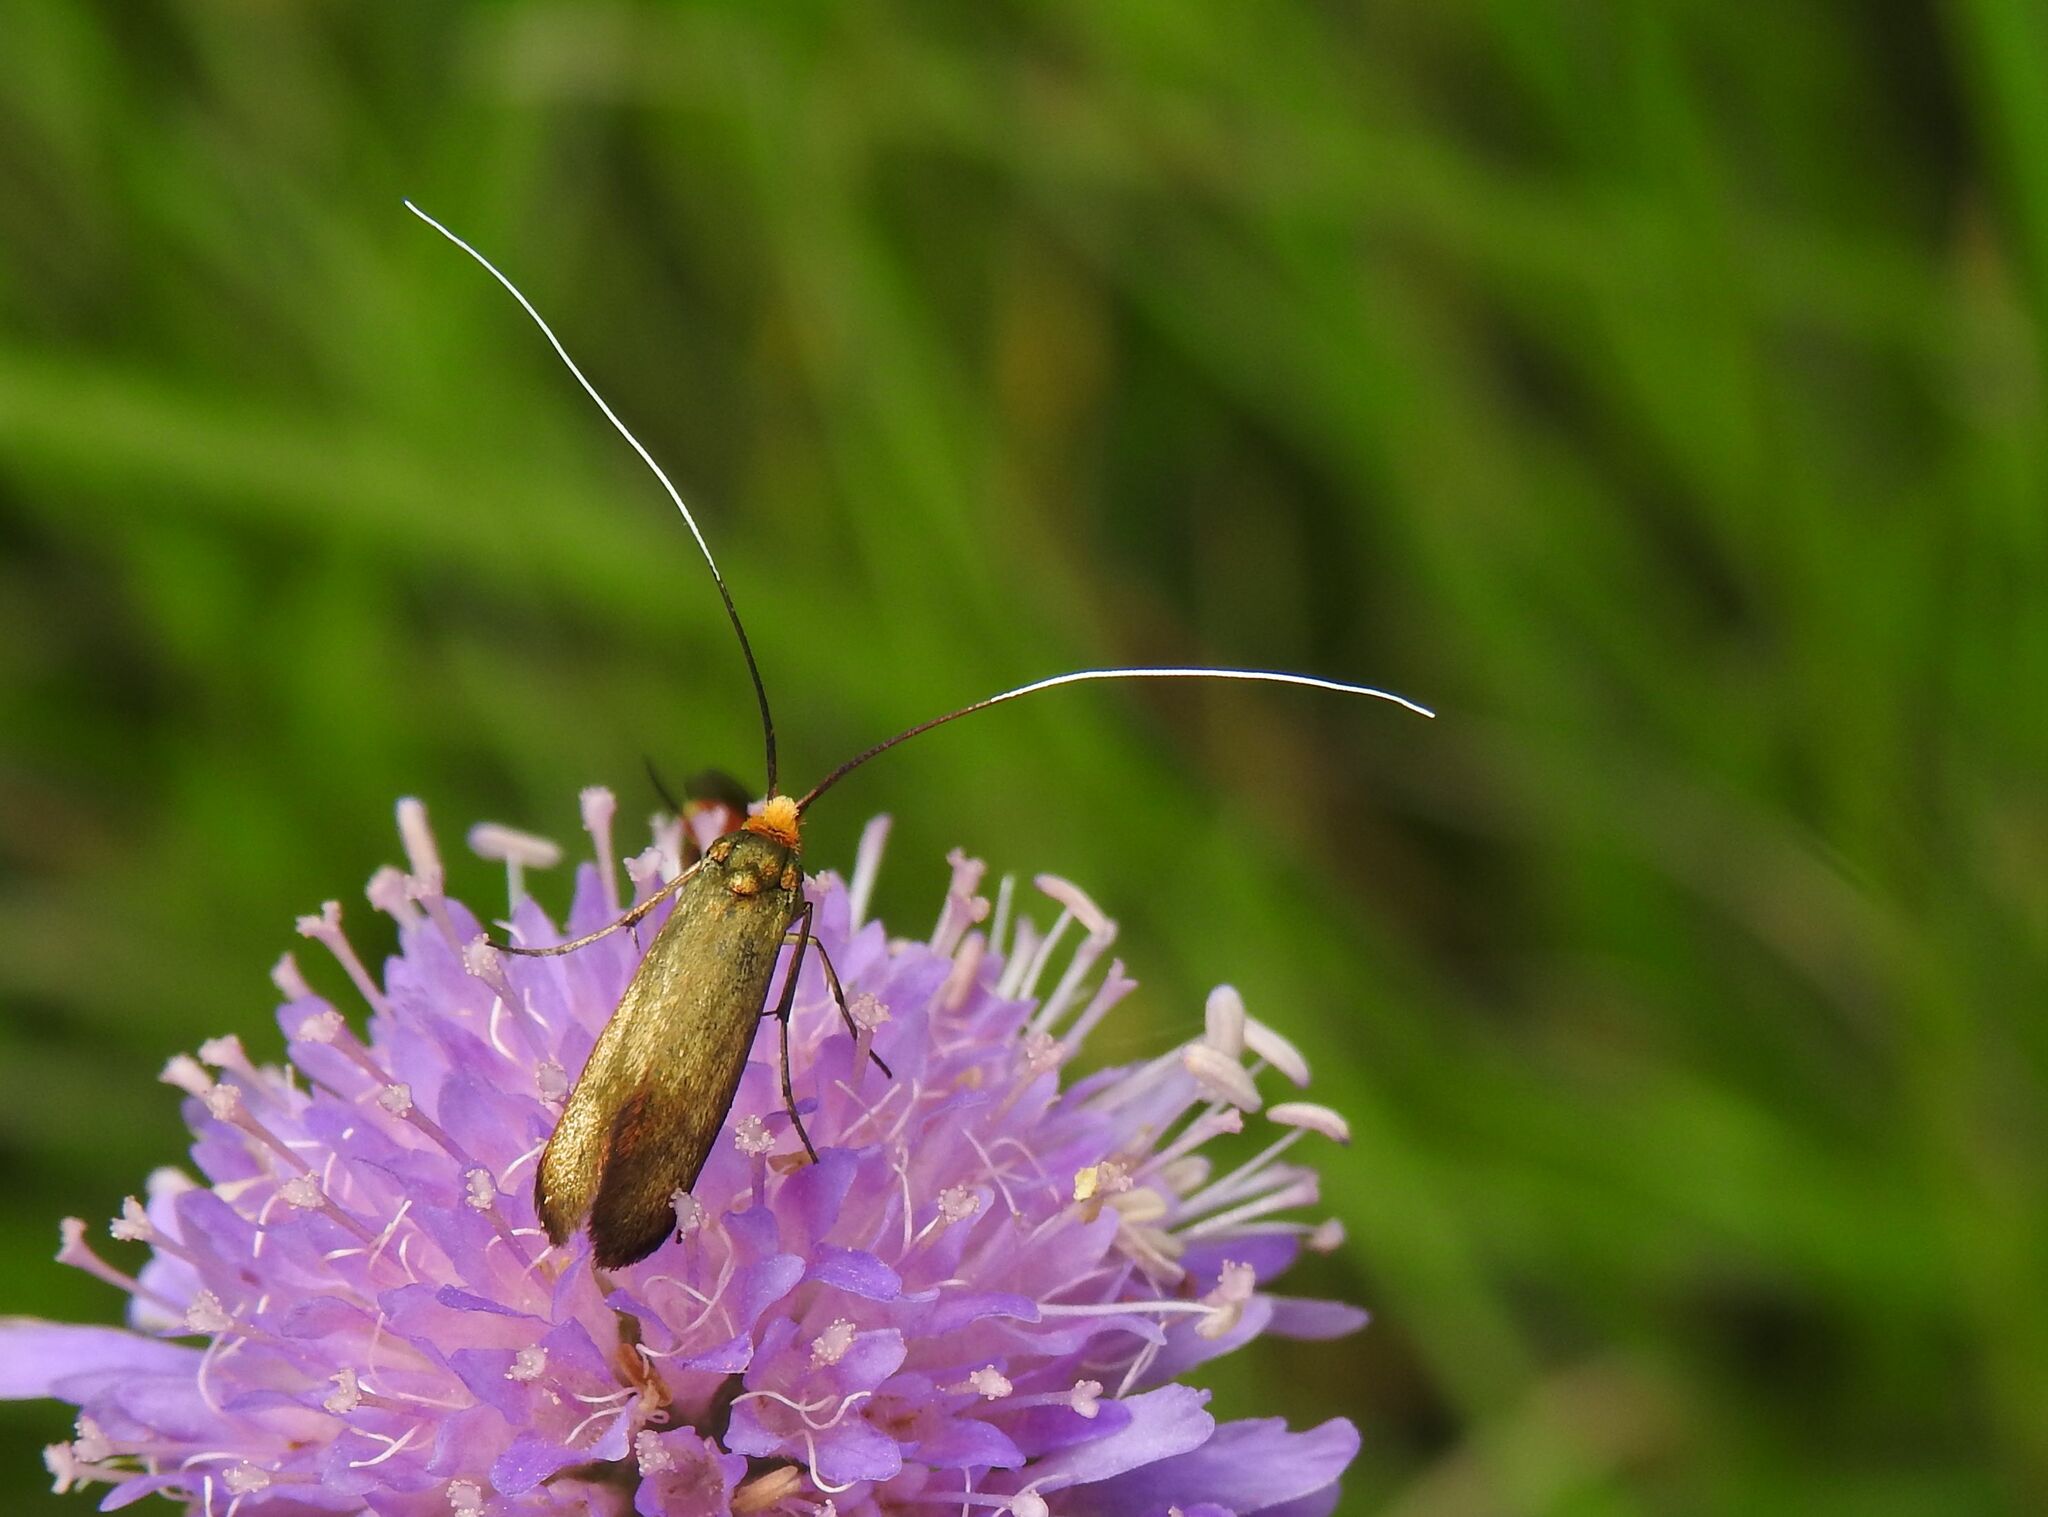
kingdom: Animalia
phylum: Arthropoda
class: Insecta
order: Lepidoptera
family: Adelidae
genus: Nemophora
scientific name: Nemophora metallica
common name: Brassy long-horn
